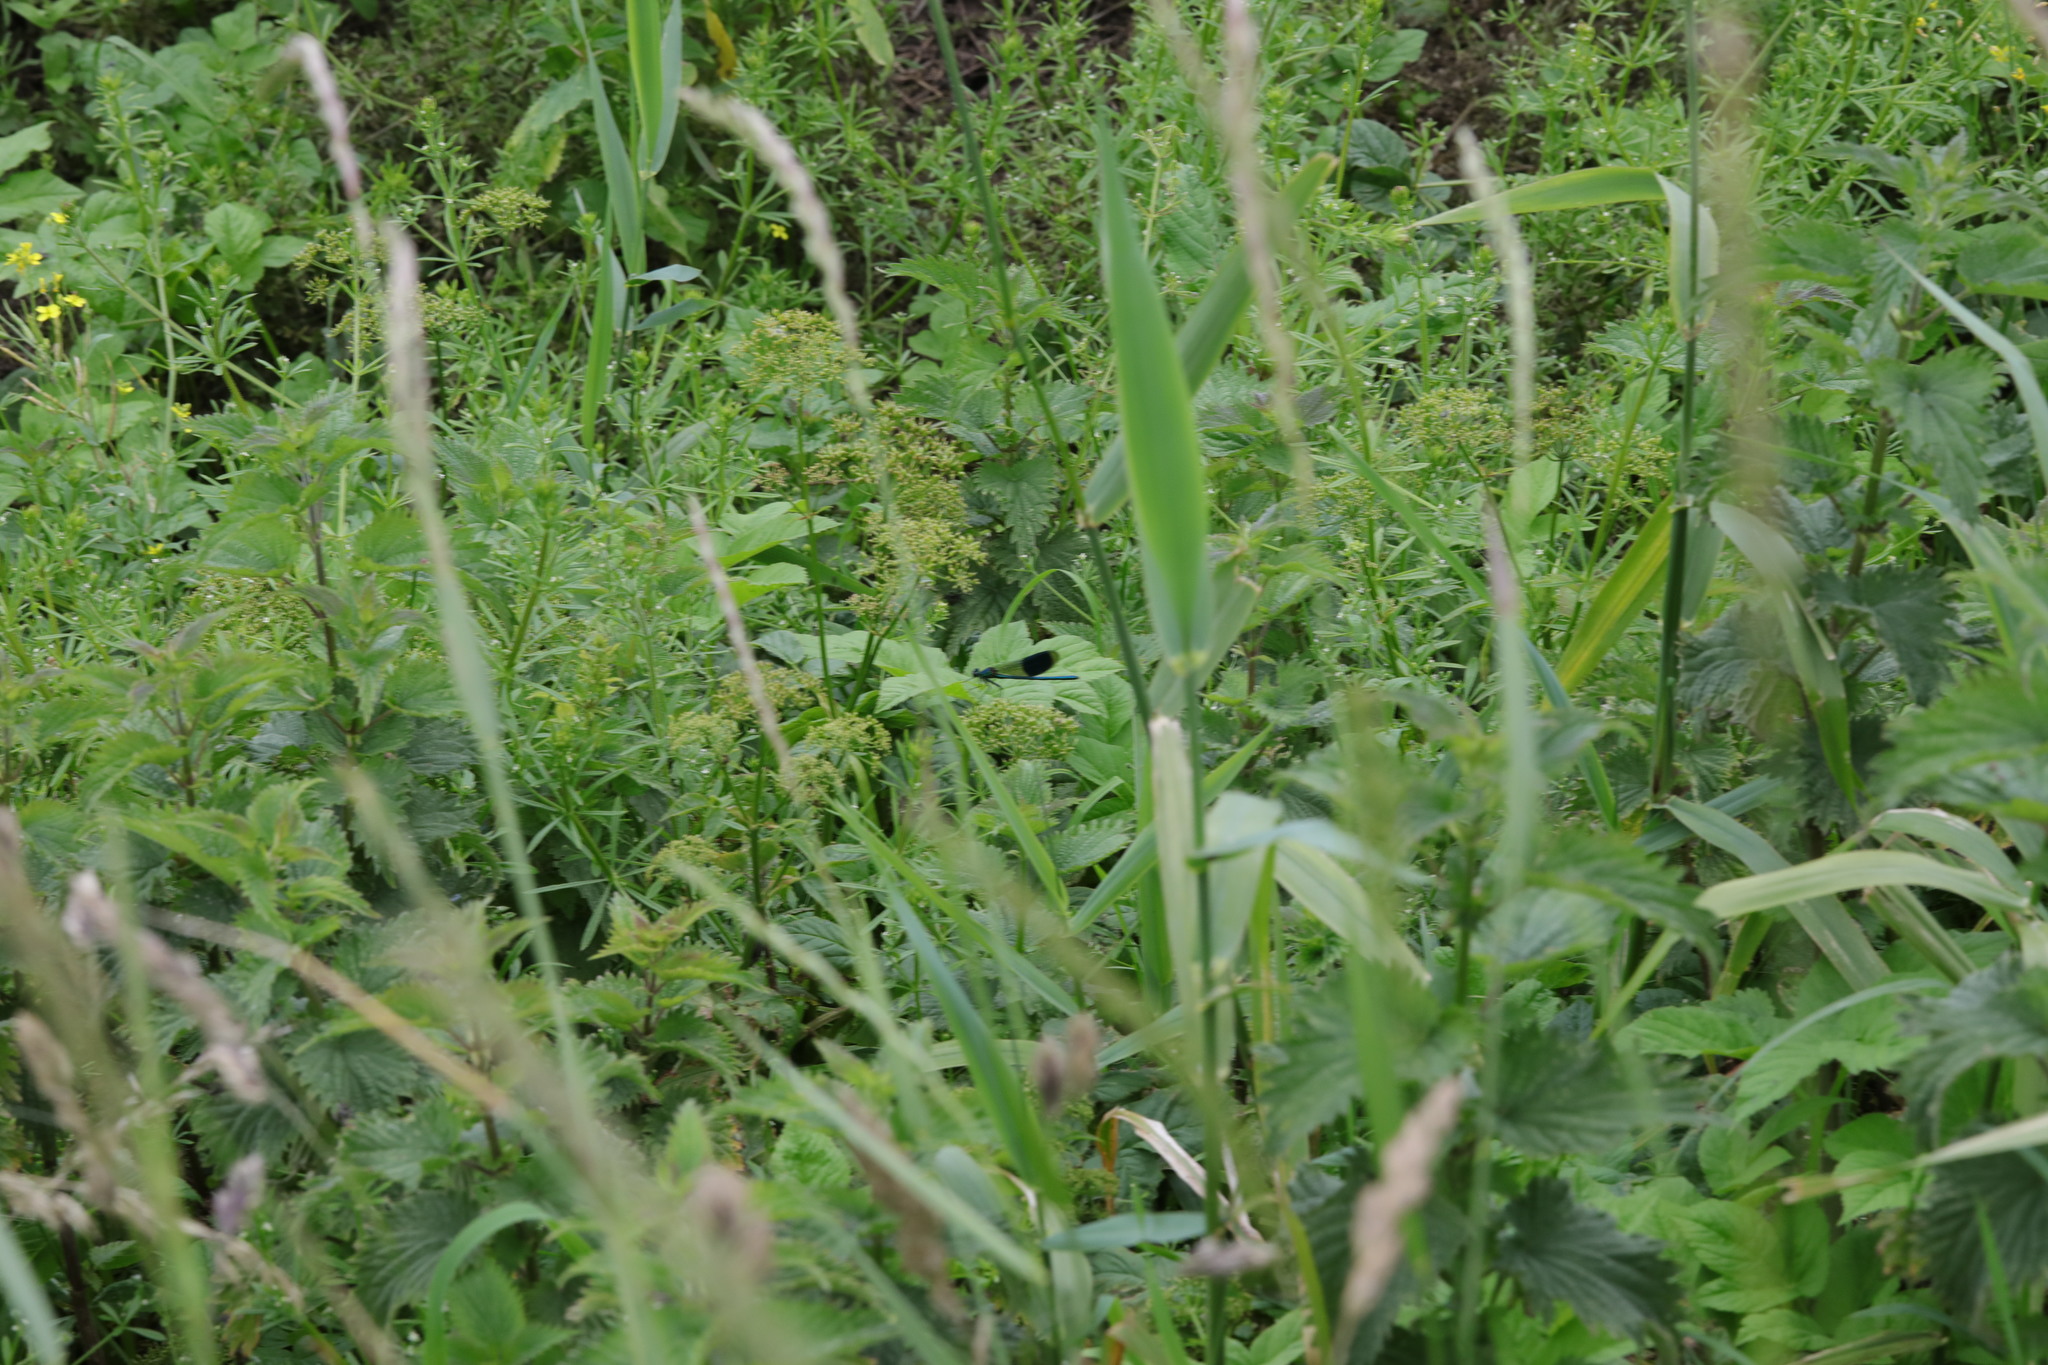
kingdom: Plantae
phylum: Tracheophyta
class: Magnoliopsida
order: Gentianales
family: Rubiaceae
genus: Galium
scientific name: Galium aparine
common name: Cleavers
